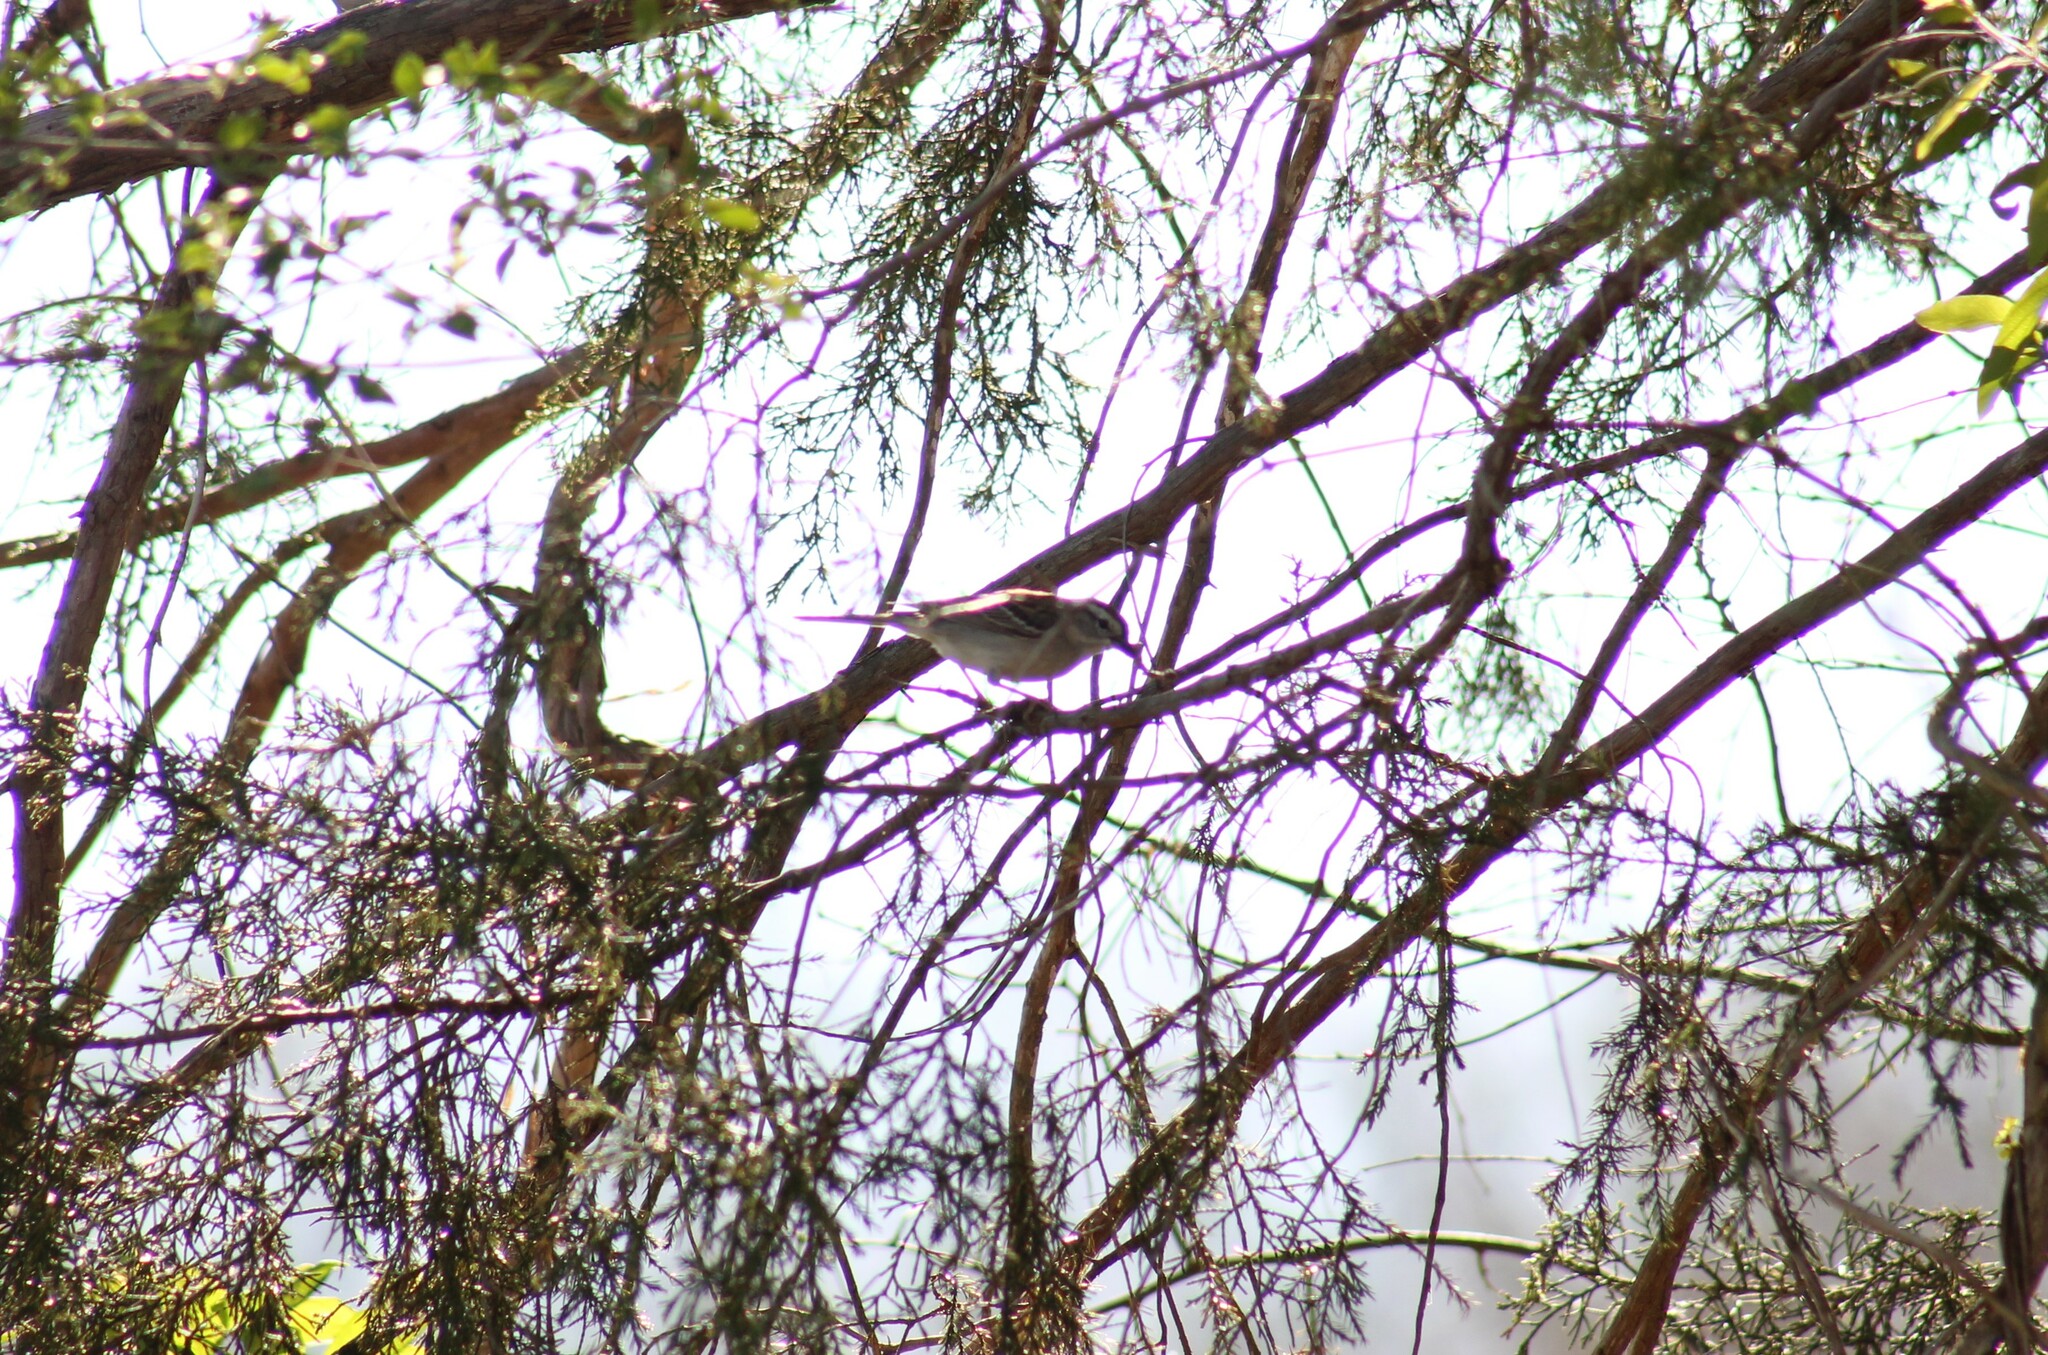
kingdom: Animalia
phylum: Chordata
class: Aves
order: Passeriformes
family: Passerellidae
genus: Spizella
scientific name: Spizella passerina
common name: Chipping sparrow
